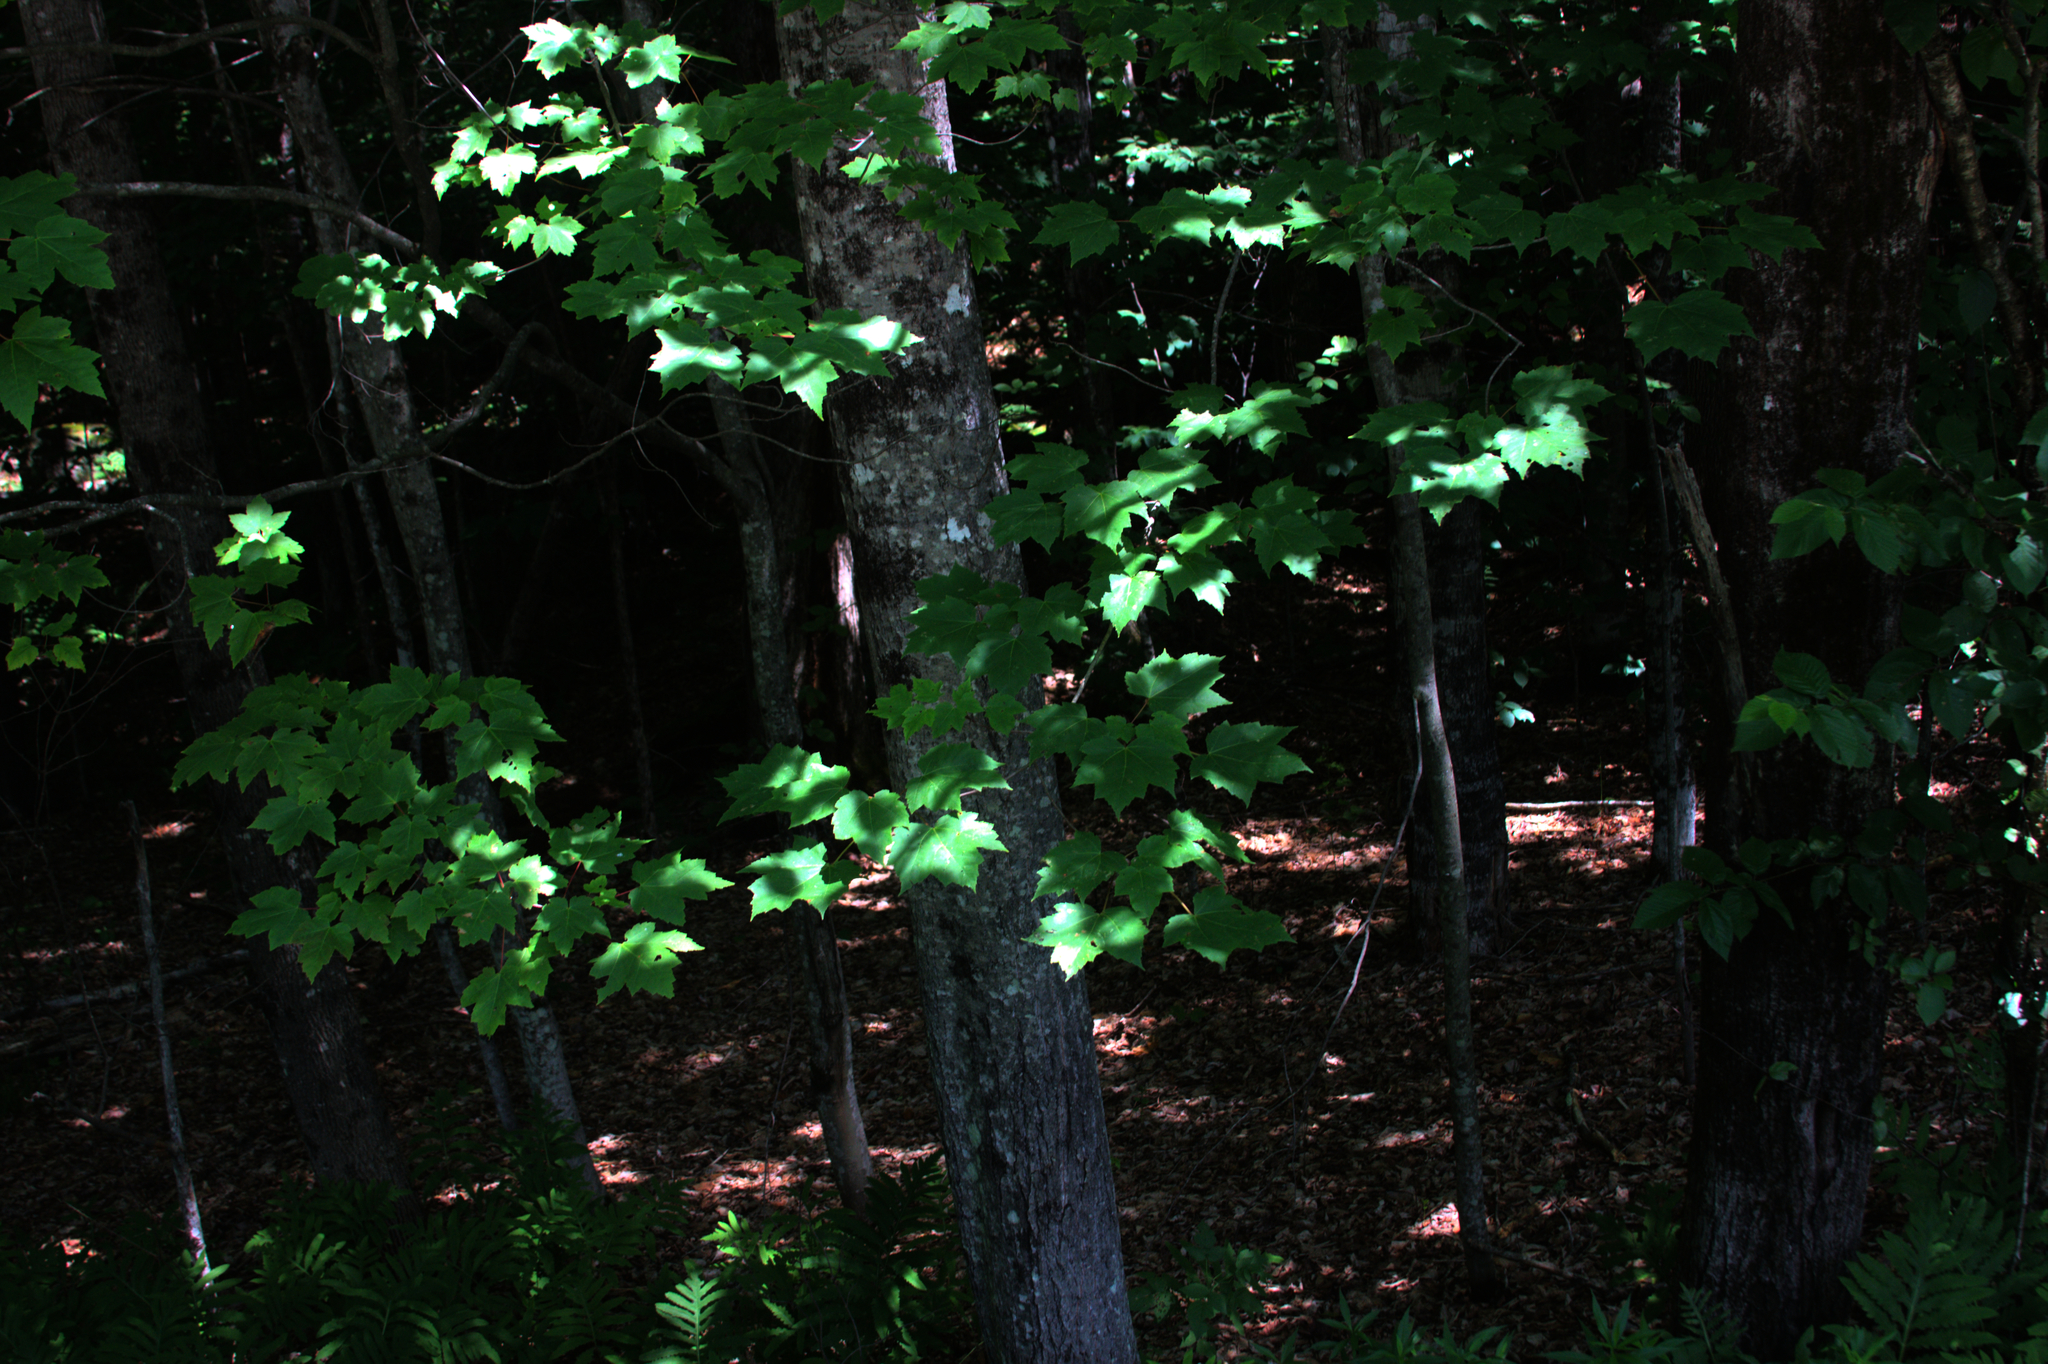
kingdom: Plantae
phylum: Tracheophyta
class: Magnoliopsida
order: Sapindales
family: Sapindaceae
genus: Acer
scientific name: Acer rubrum
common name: Red maple
